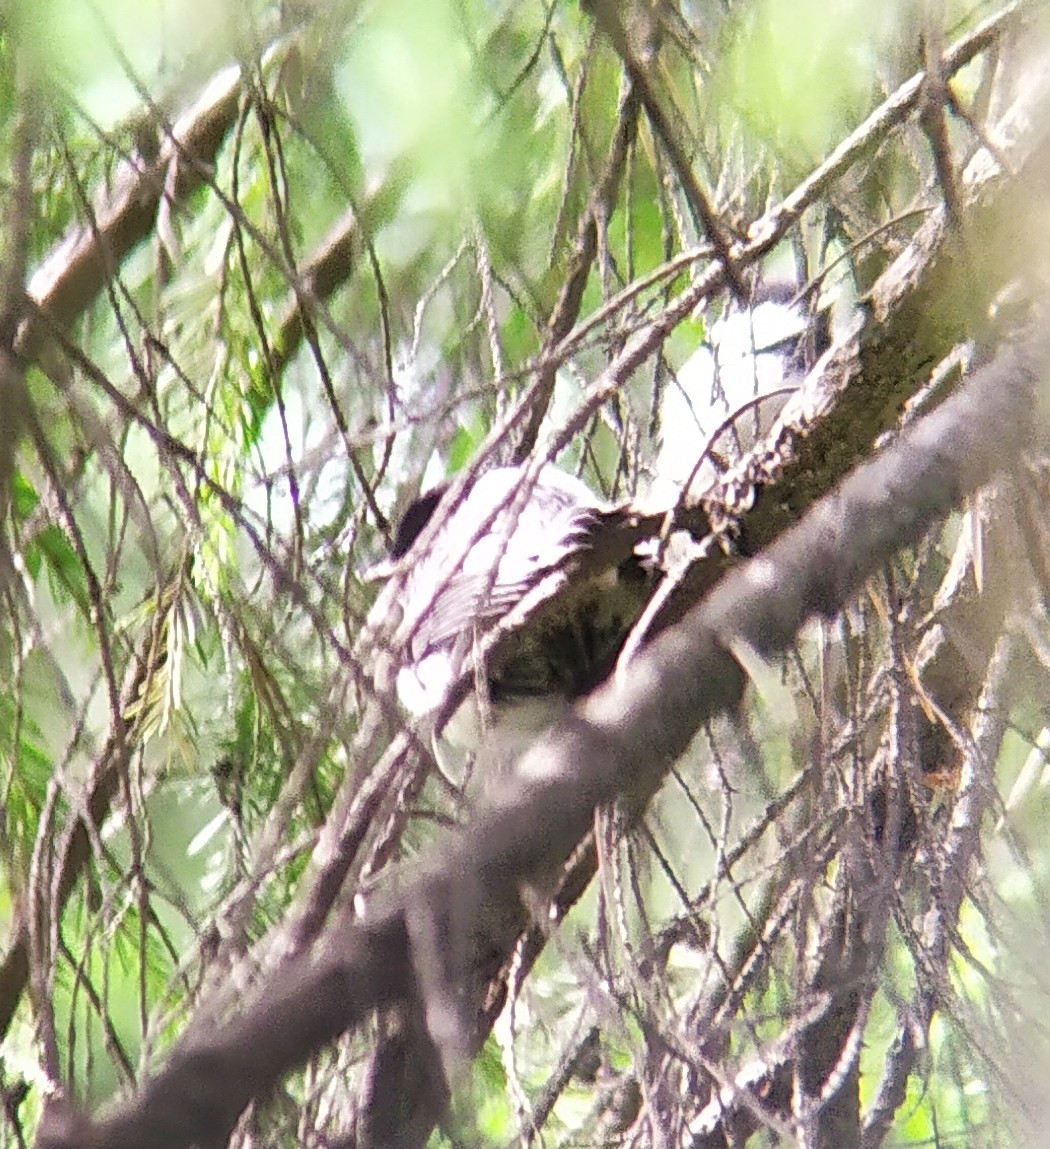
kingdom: Animalia
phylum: Chordata
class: Aves
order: Passeriformes
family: Paridae
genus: Poecile
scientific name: Poecile montanus
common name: Willow tit
